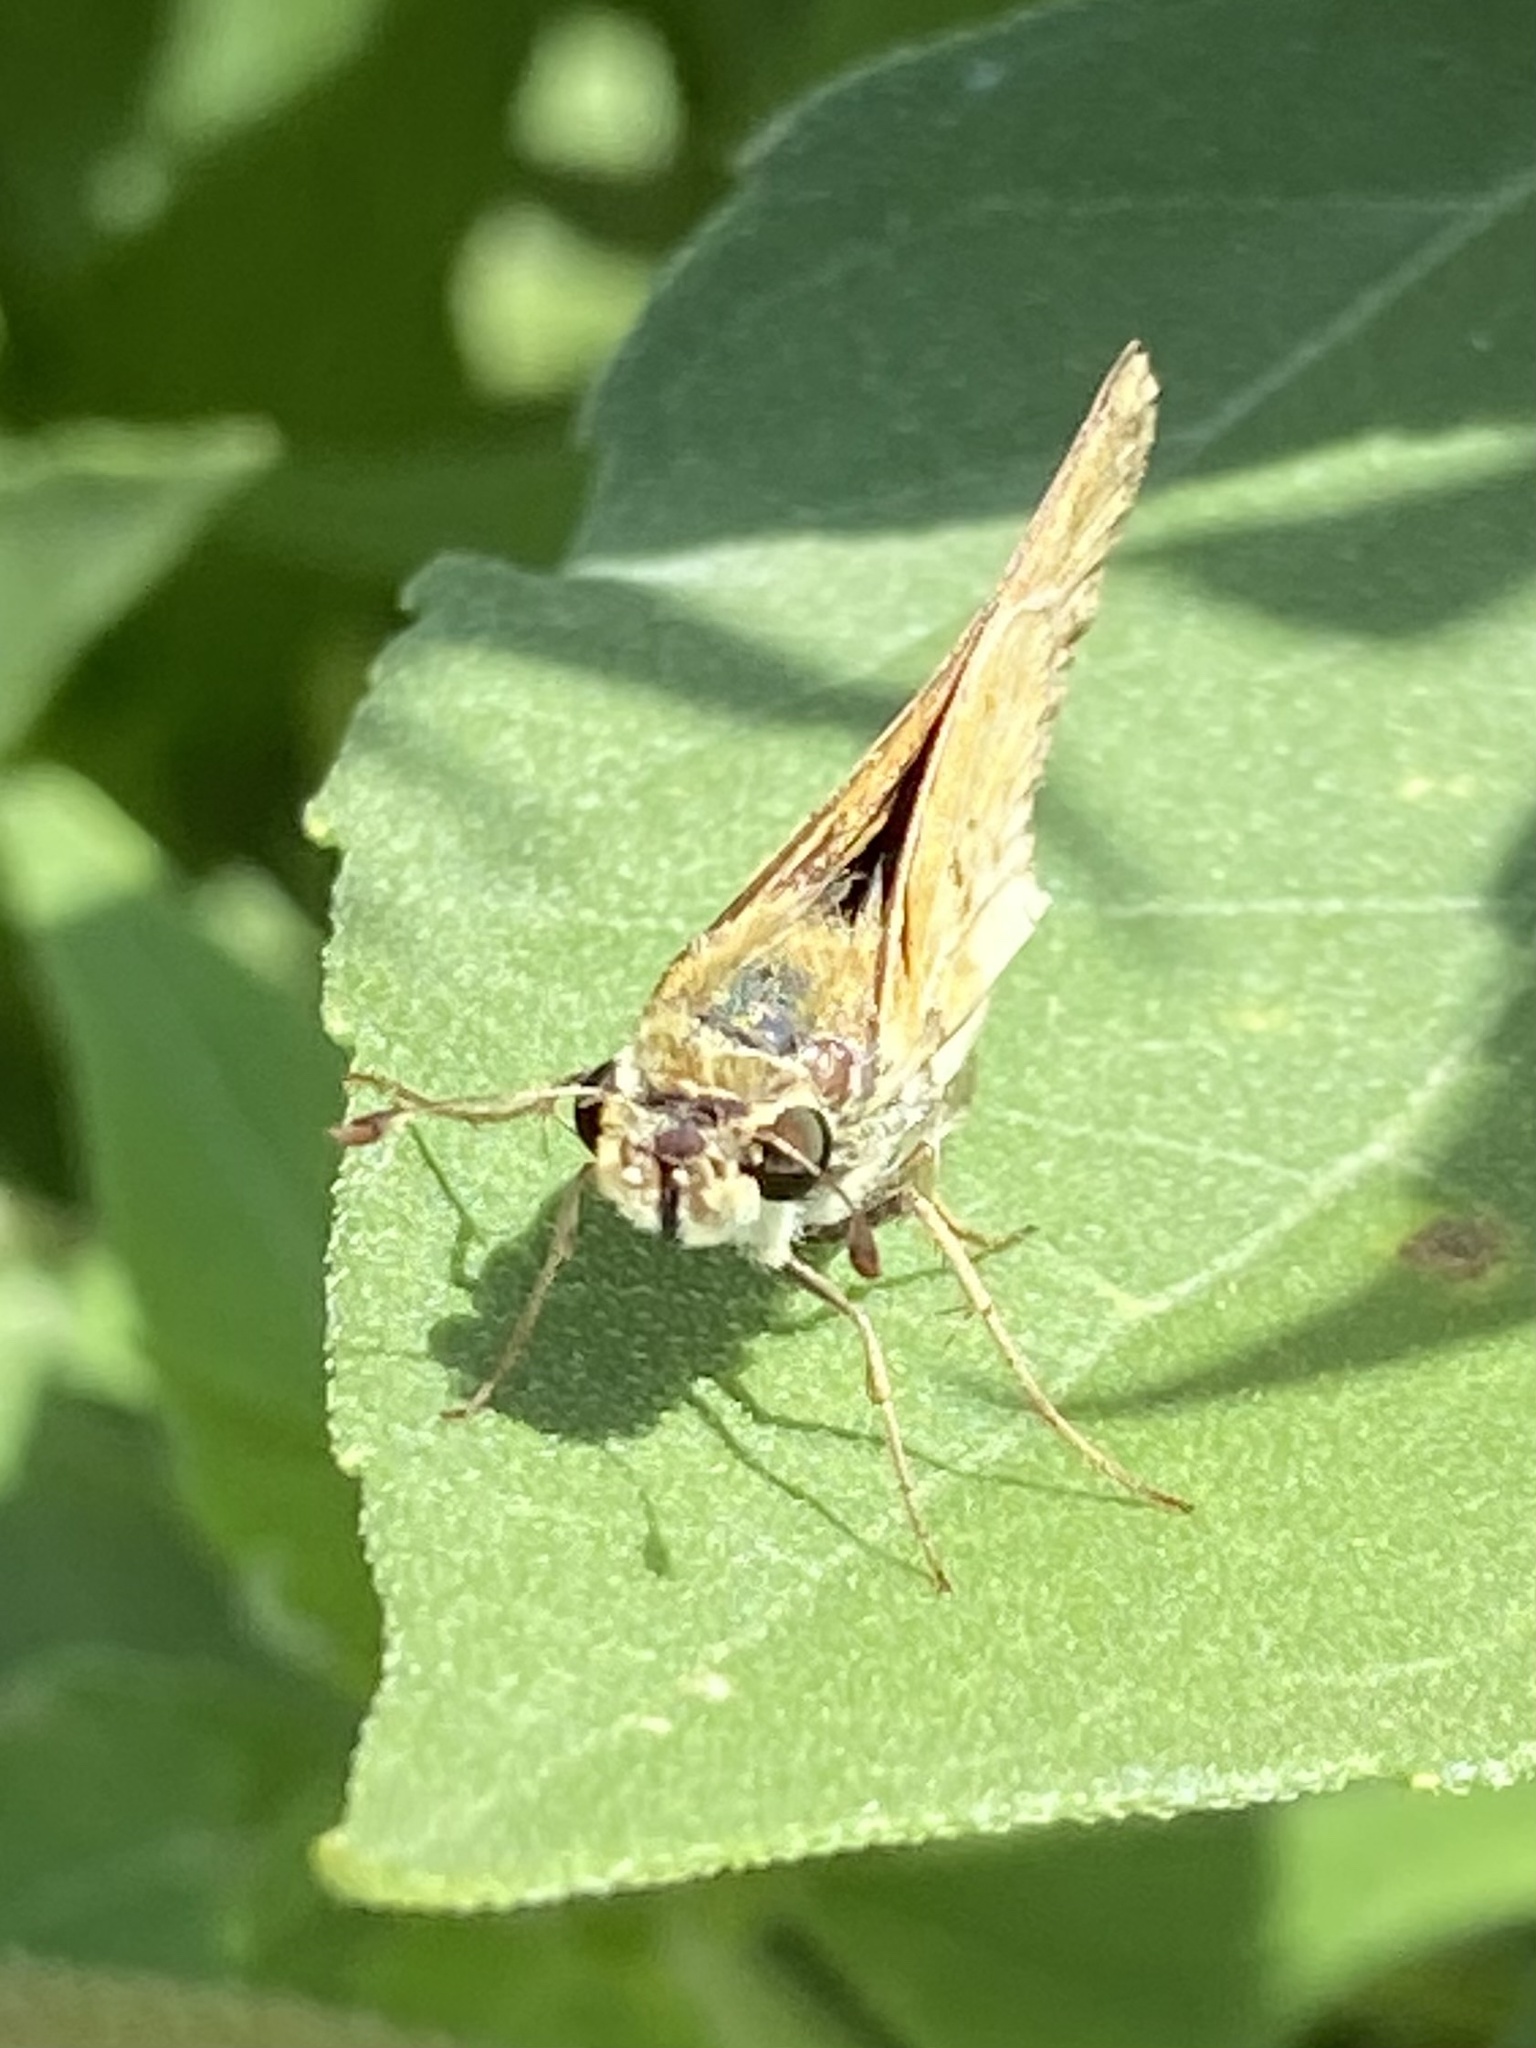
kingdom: Animalia
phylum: Arthropoda
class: Insecta
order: Lepidoptera
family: Hesperiidae
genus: Hylephila
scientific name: Hylephila phyleus
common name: Fiery skipper
